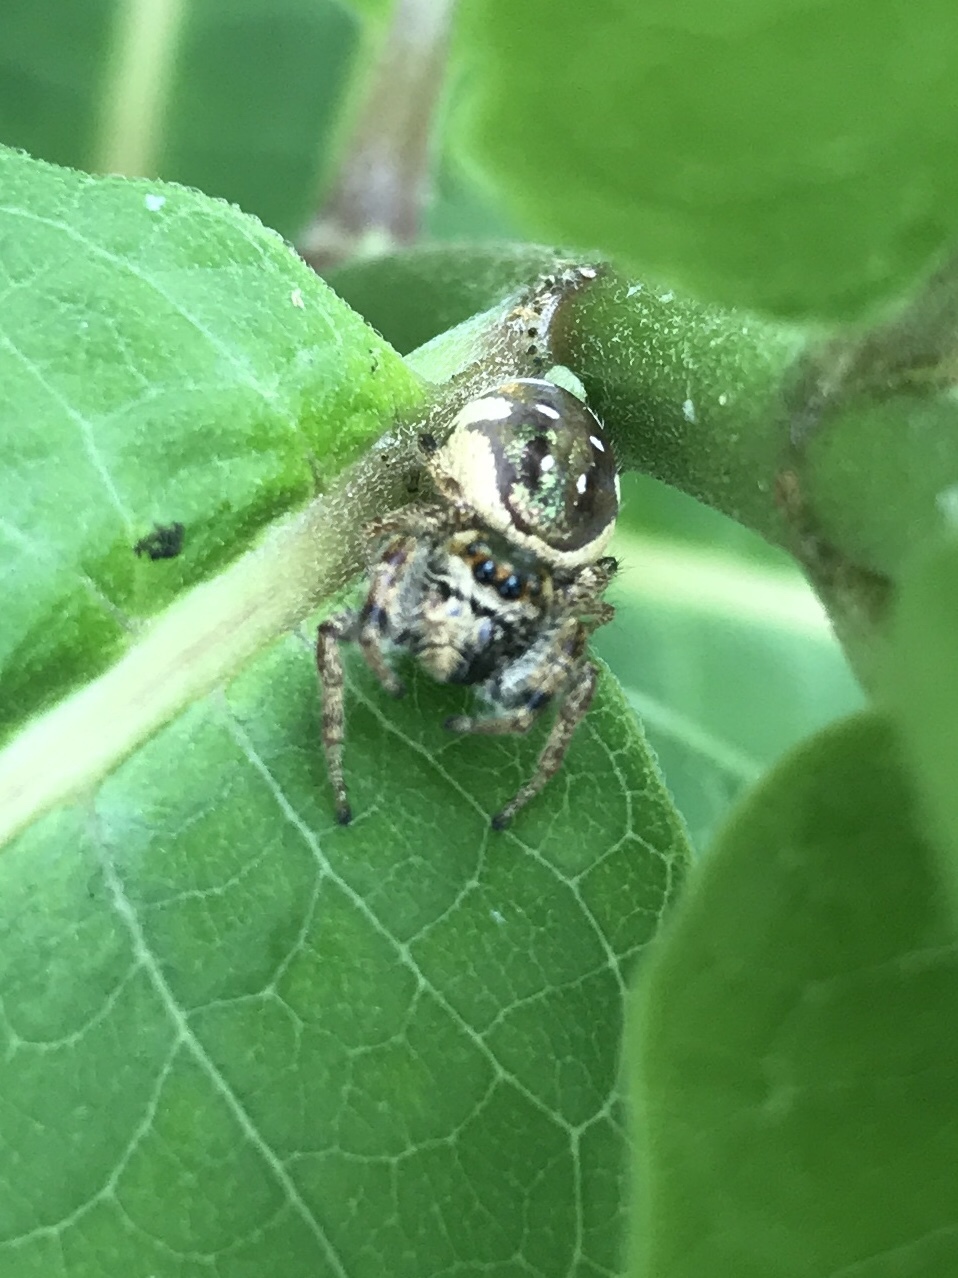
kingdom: Animalia
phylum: Arthropoda
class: Arachnida
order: Araneae
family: Salticidae
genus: Paraphidippus
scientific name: Paraphidippus aurantius
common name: Jumping spiders
